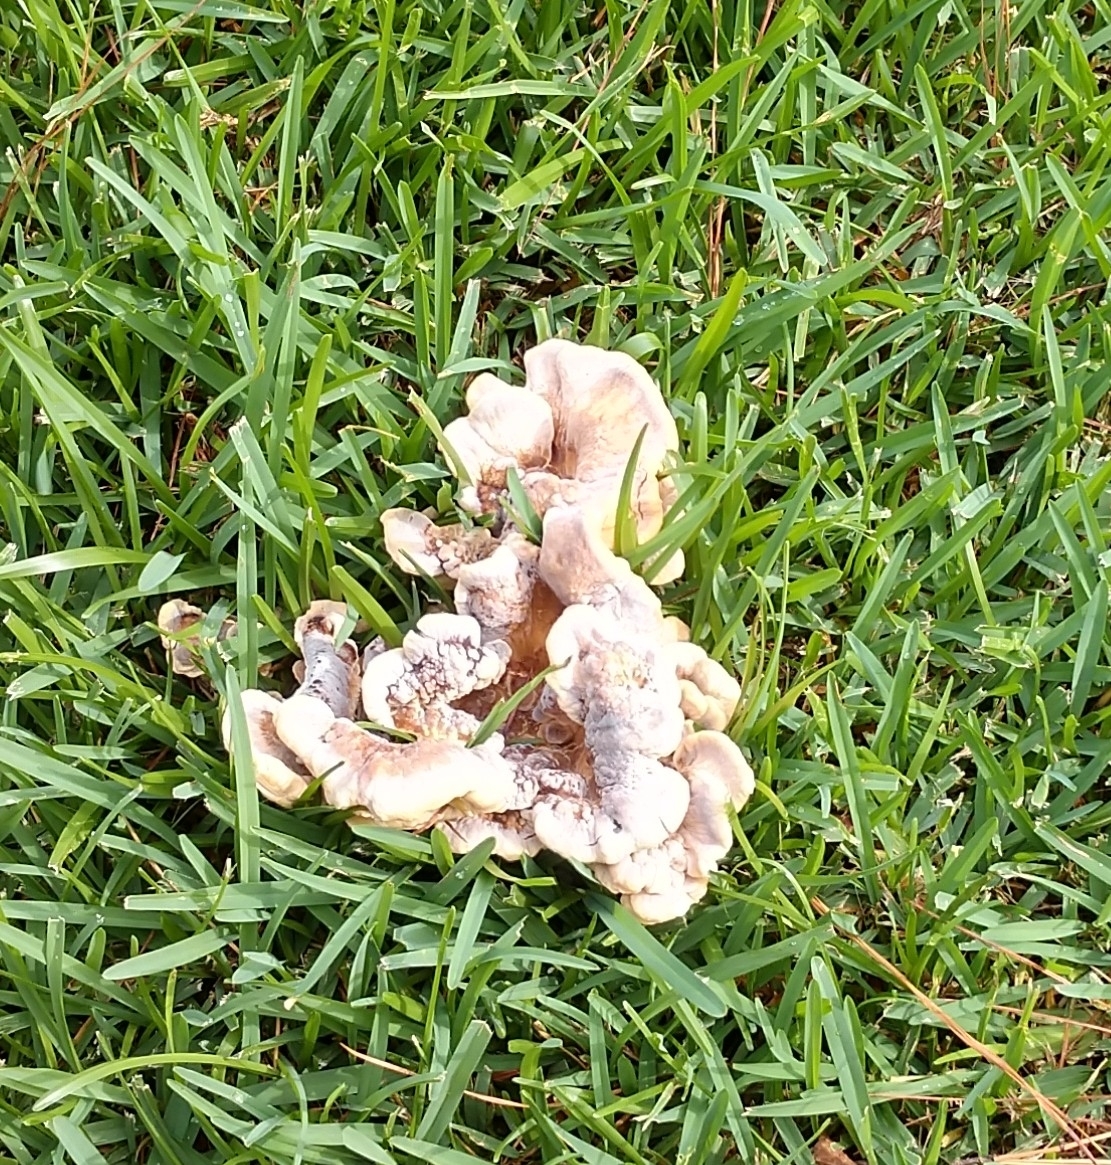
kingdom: Fungi
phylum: Basidiomycota
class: Agaricomycetes
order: Polyporales
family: Podoscyphaceae
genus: Abortiporus
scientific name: Abortiporus biennis
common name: Blushing rosette
